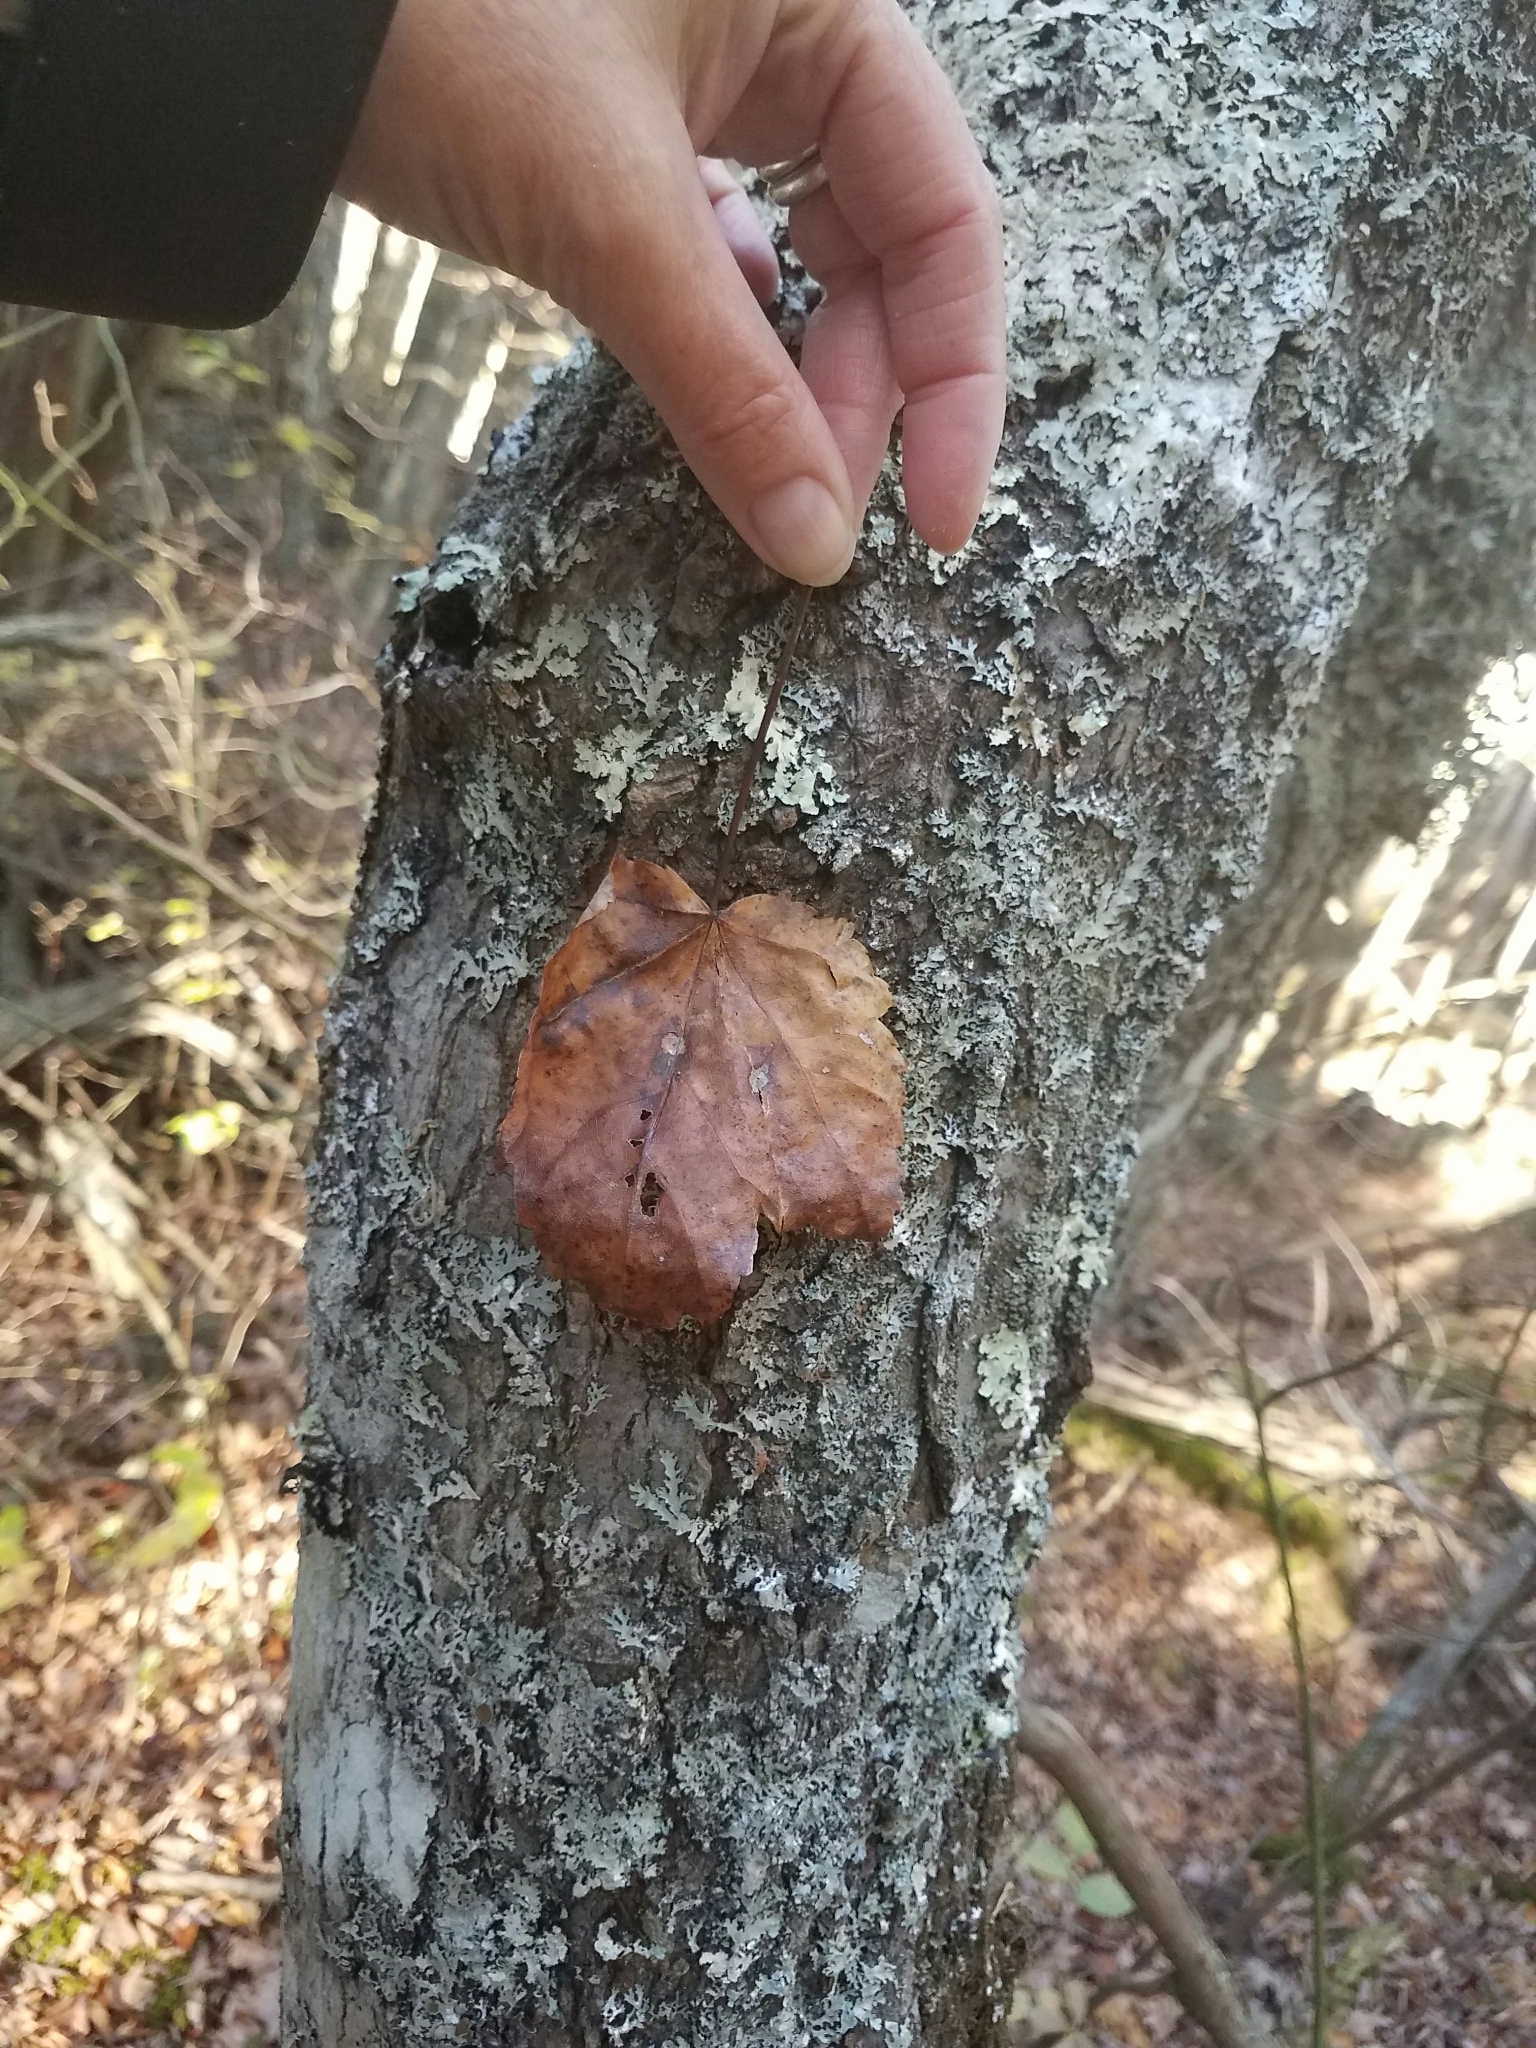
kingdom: Plantae
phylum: Tracheophyta
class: Magnoliopsida
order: Sapindales
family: Sapindaceae
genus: Acer
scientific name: Acer rubrum
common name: Red maple
